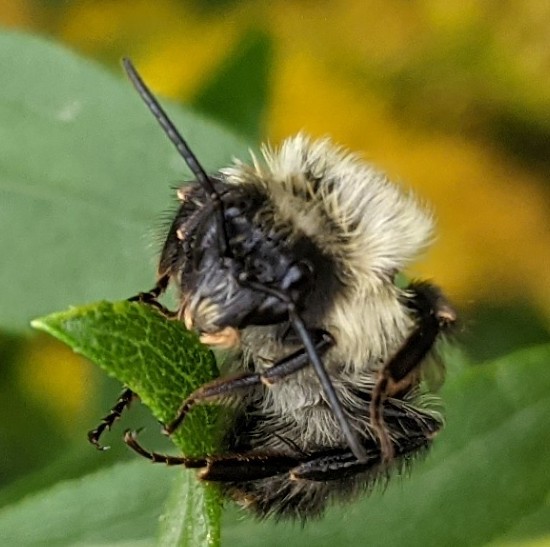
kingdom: Animalia
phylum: Arthropoda
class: Insecta
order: Hymenoptera
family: Apidae
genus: Bombus
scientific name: Bombus impatiens
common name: Common eastern bumble bee
